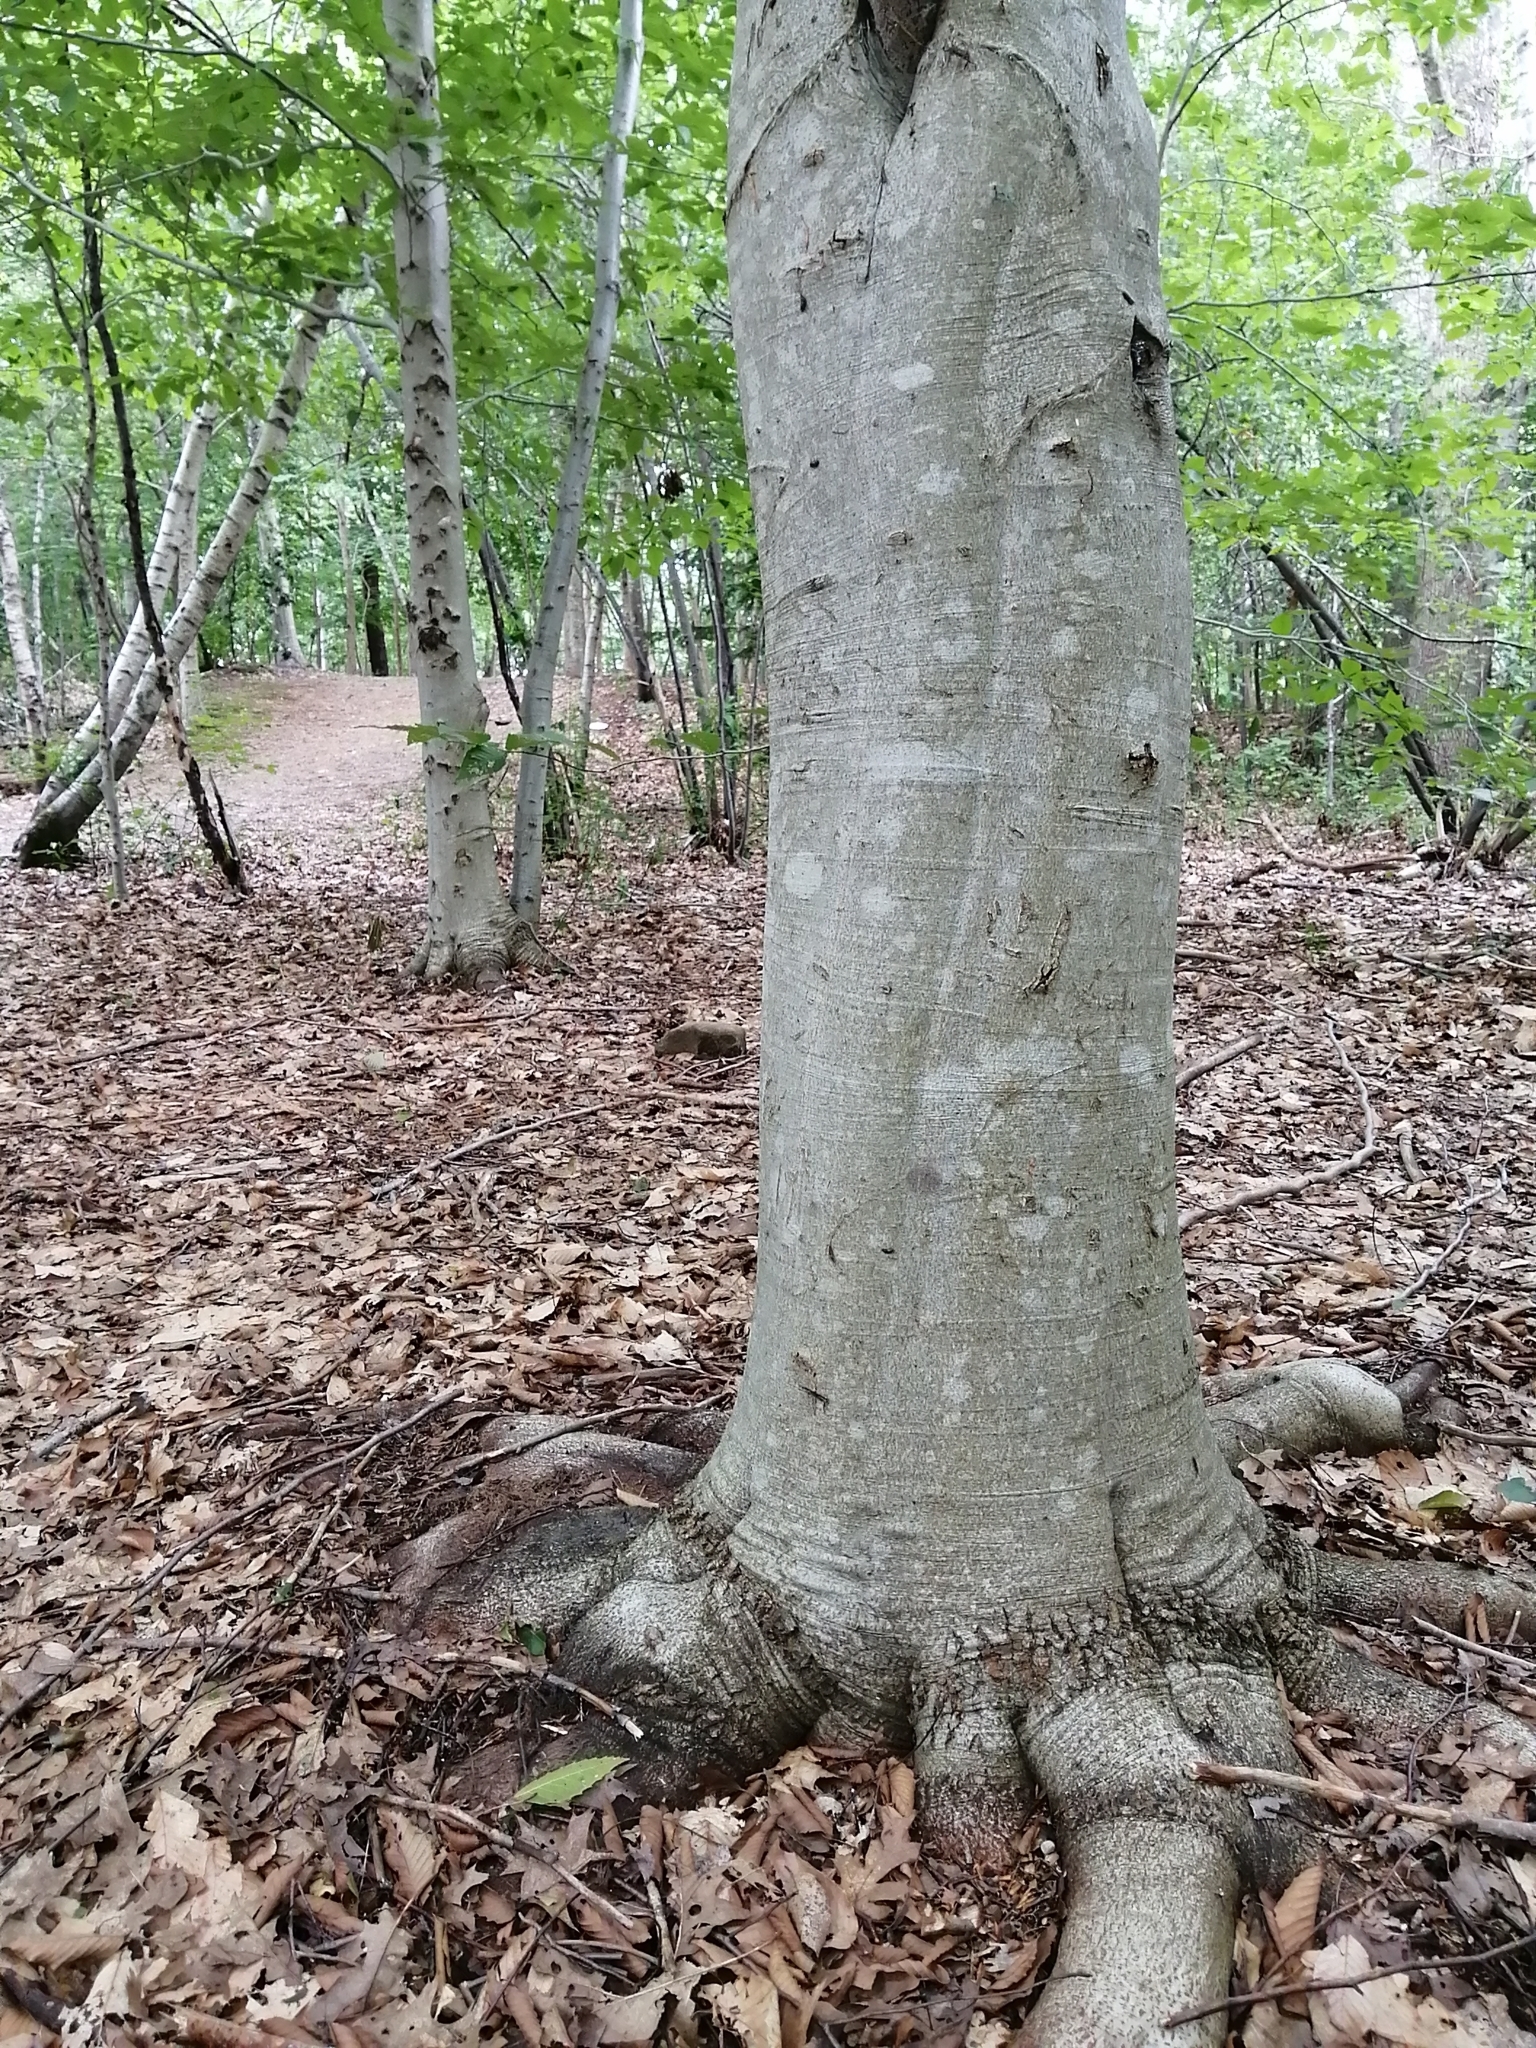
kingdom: Plantae
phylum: Tracheophyta
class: Magnoliopsida
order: Fagales
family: Fagaceae
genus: Fagus
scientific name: Fagus grandifolia
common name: American beech
